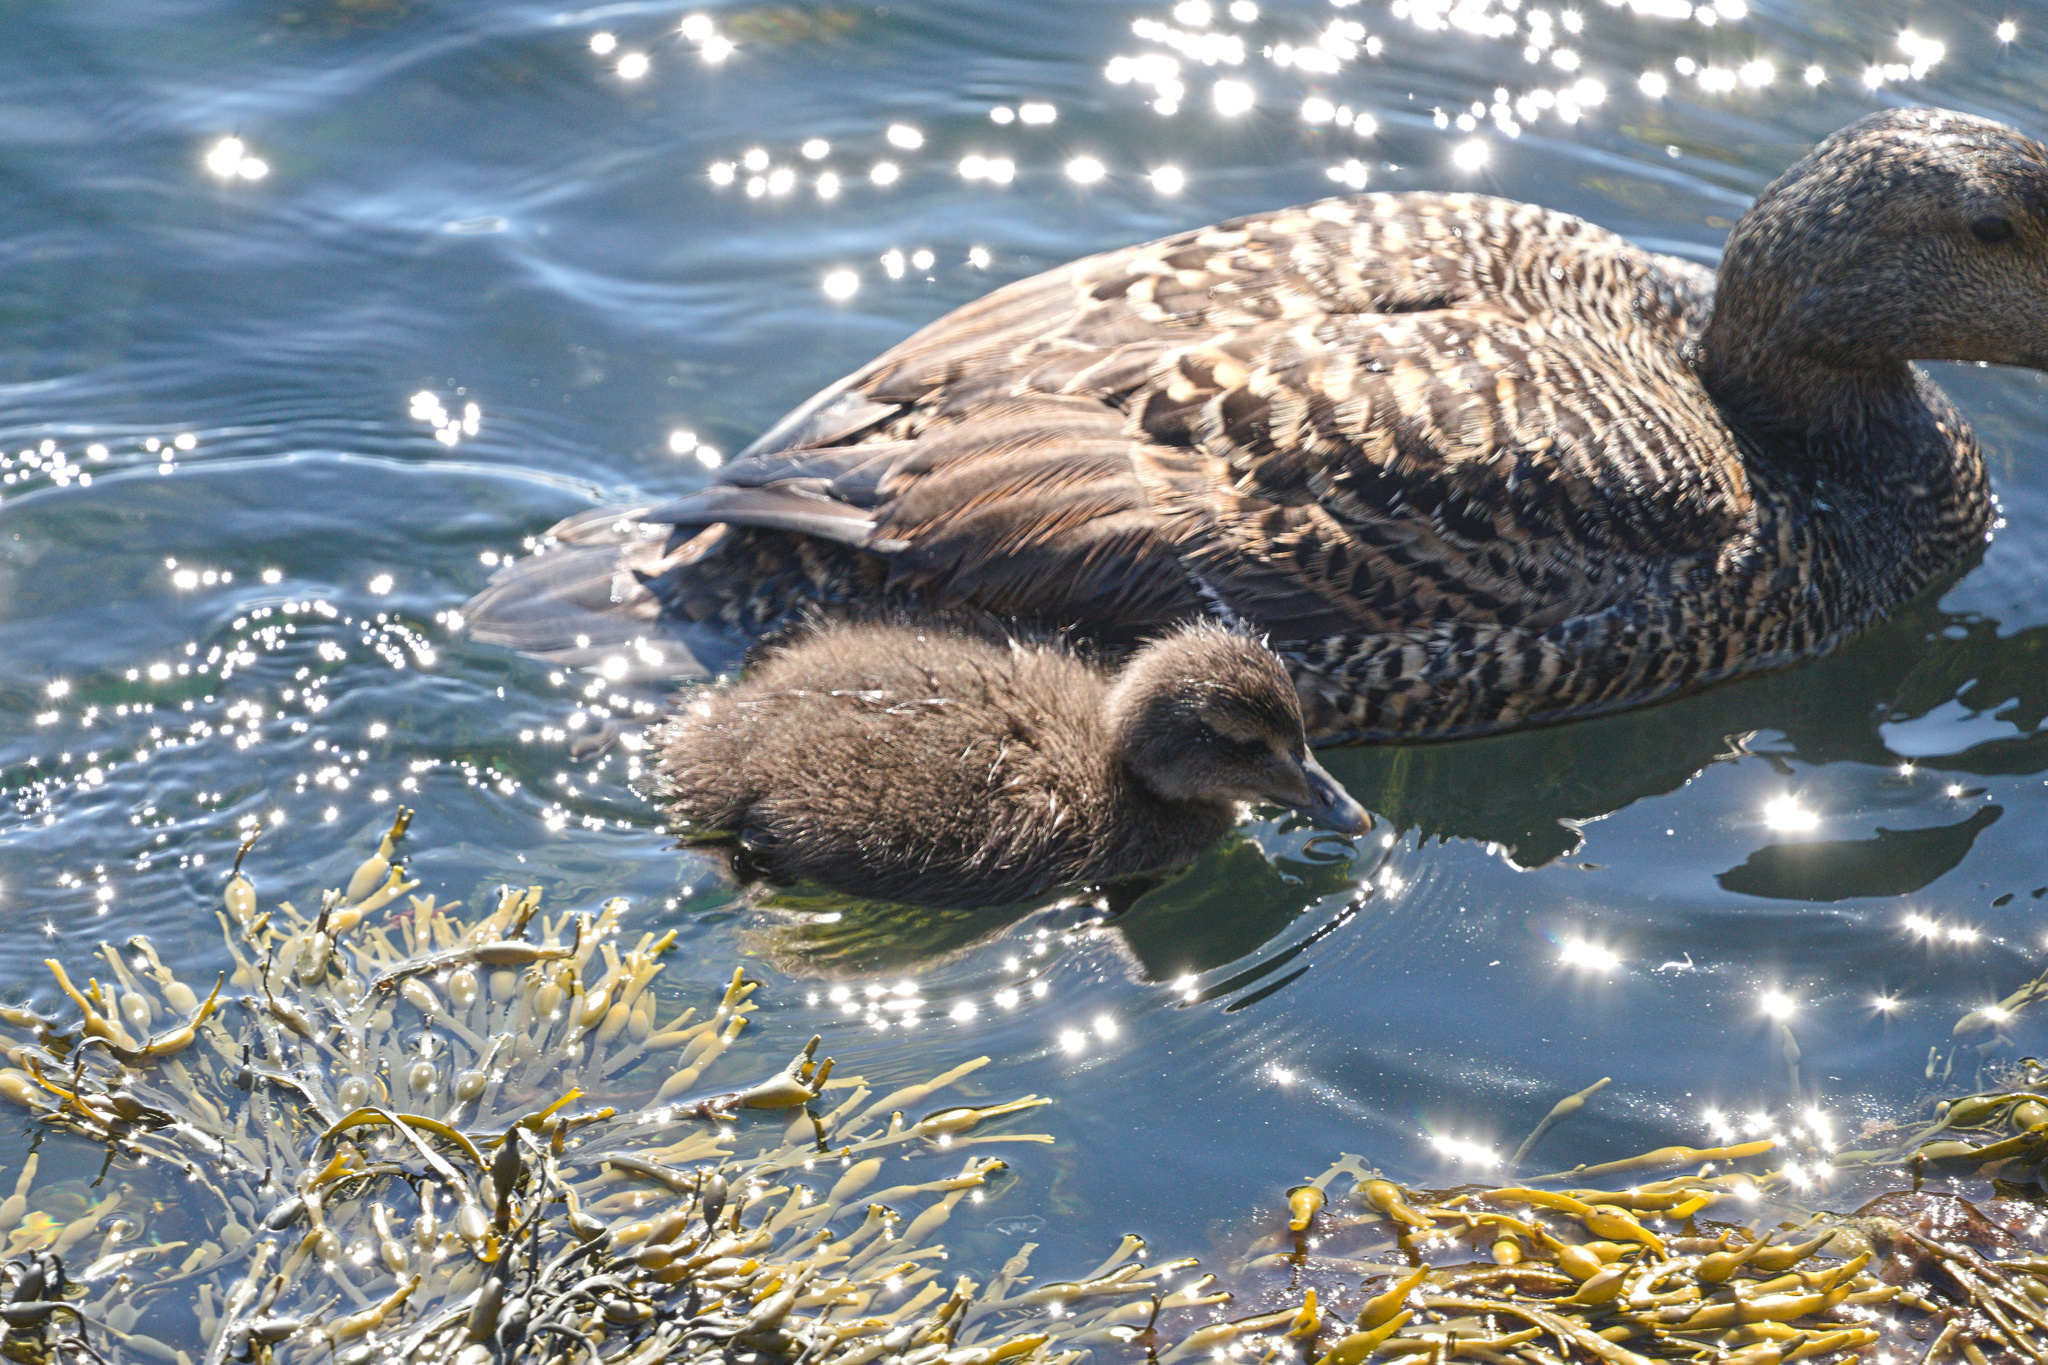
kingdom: Animalia
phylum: Chordata
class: Aves
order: Anseriformes
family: Anatidae
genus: Somateria
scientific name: Somateria mollissima
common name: Common eider
